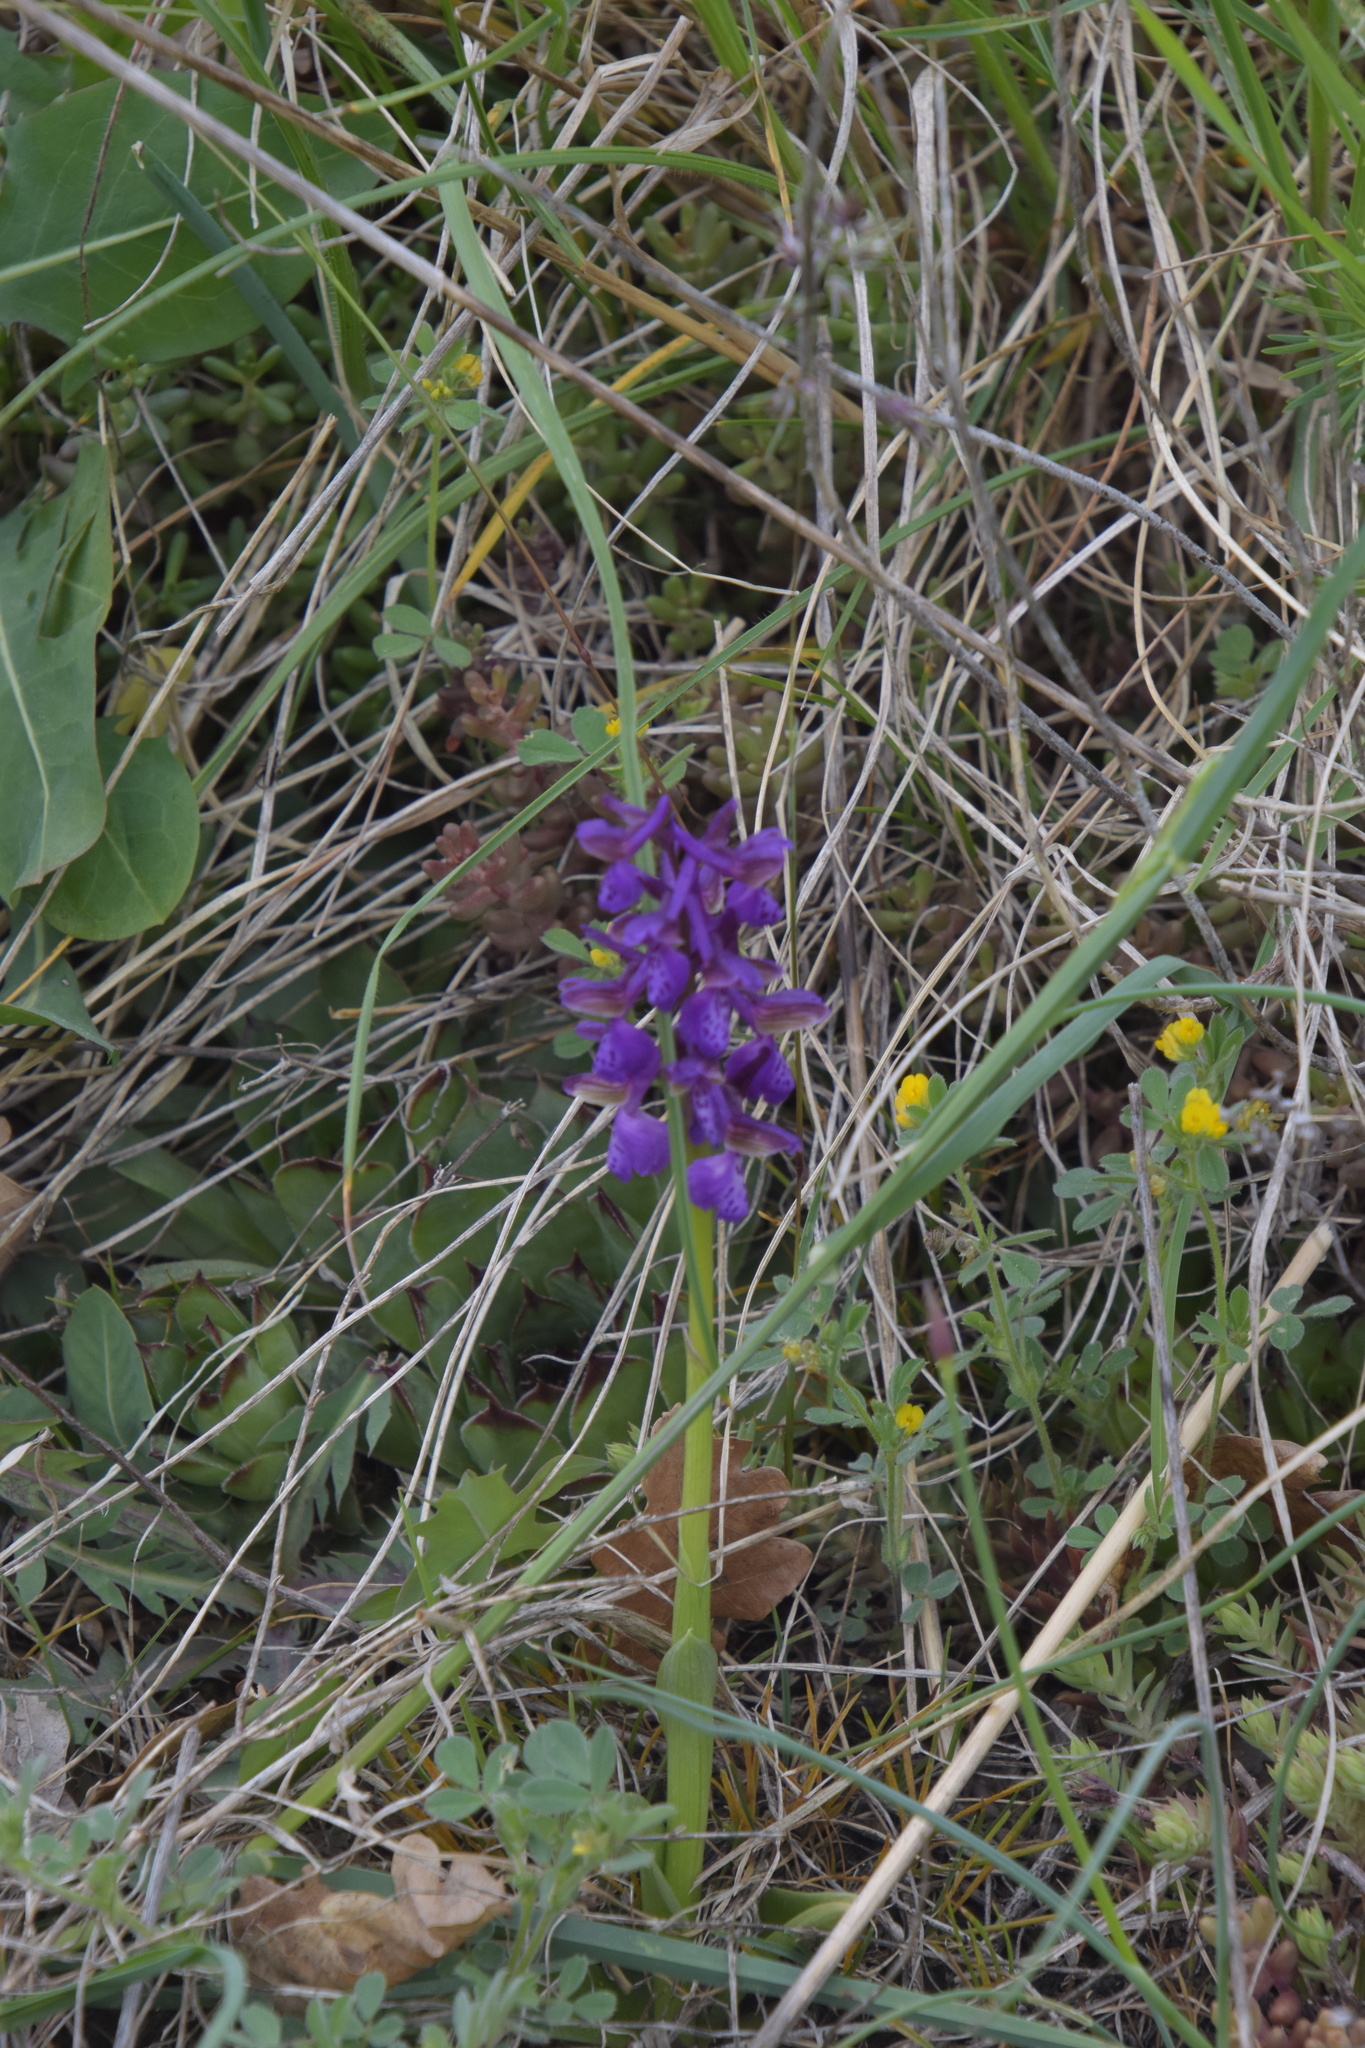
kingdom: Plantae
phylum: Tracheophyta
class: Liliopsida
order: Asparagales
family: Orchidaceae
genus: Anacamptis
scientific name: Anacamptis morio
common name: Green-winged orchid
